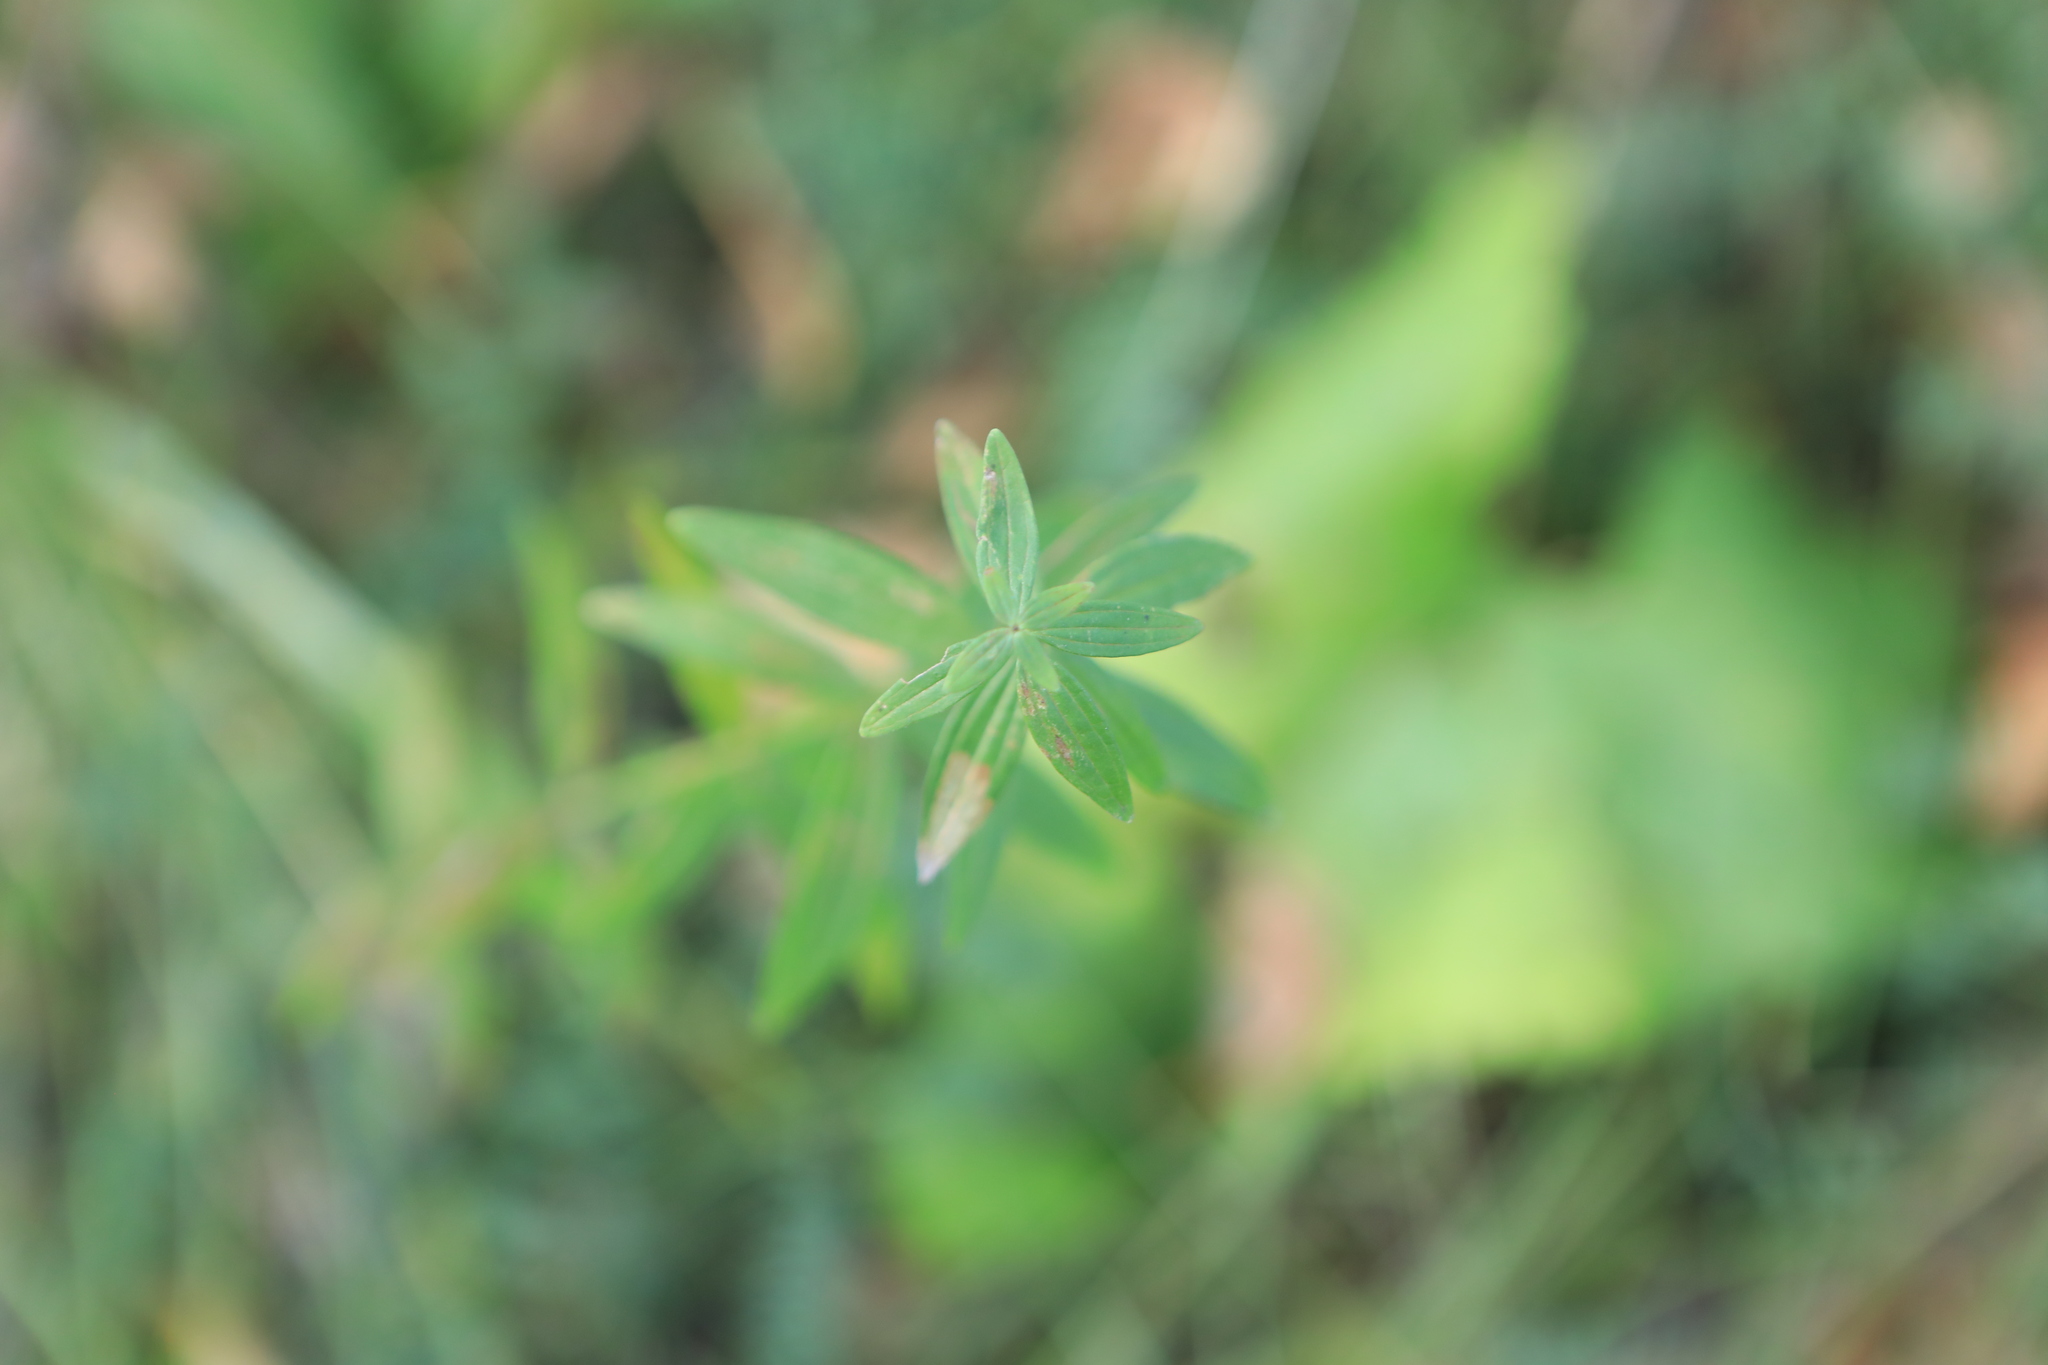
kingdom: Plantae
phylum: Tracheophyta
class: Magnoliopsida
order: Gentianales
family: Rubiaceae
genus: Galium
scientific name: Galium boreale
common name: Northern bedstraw
